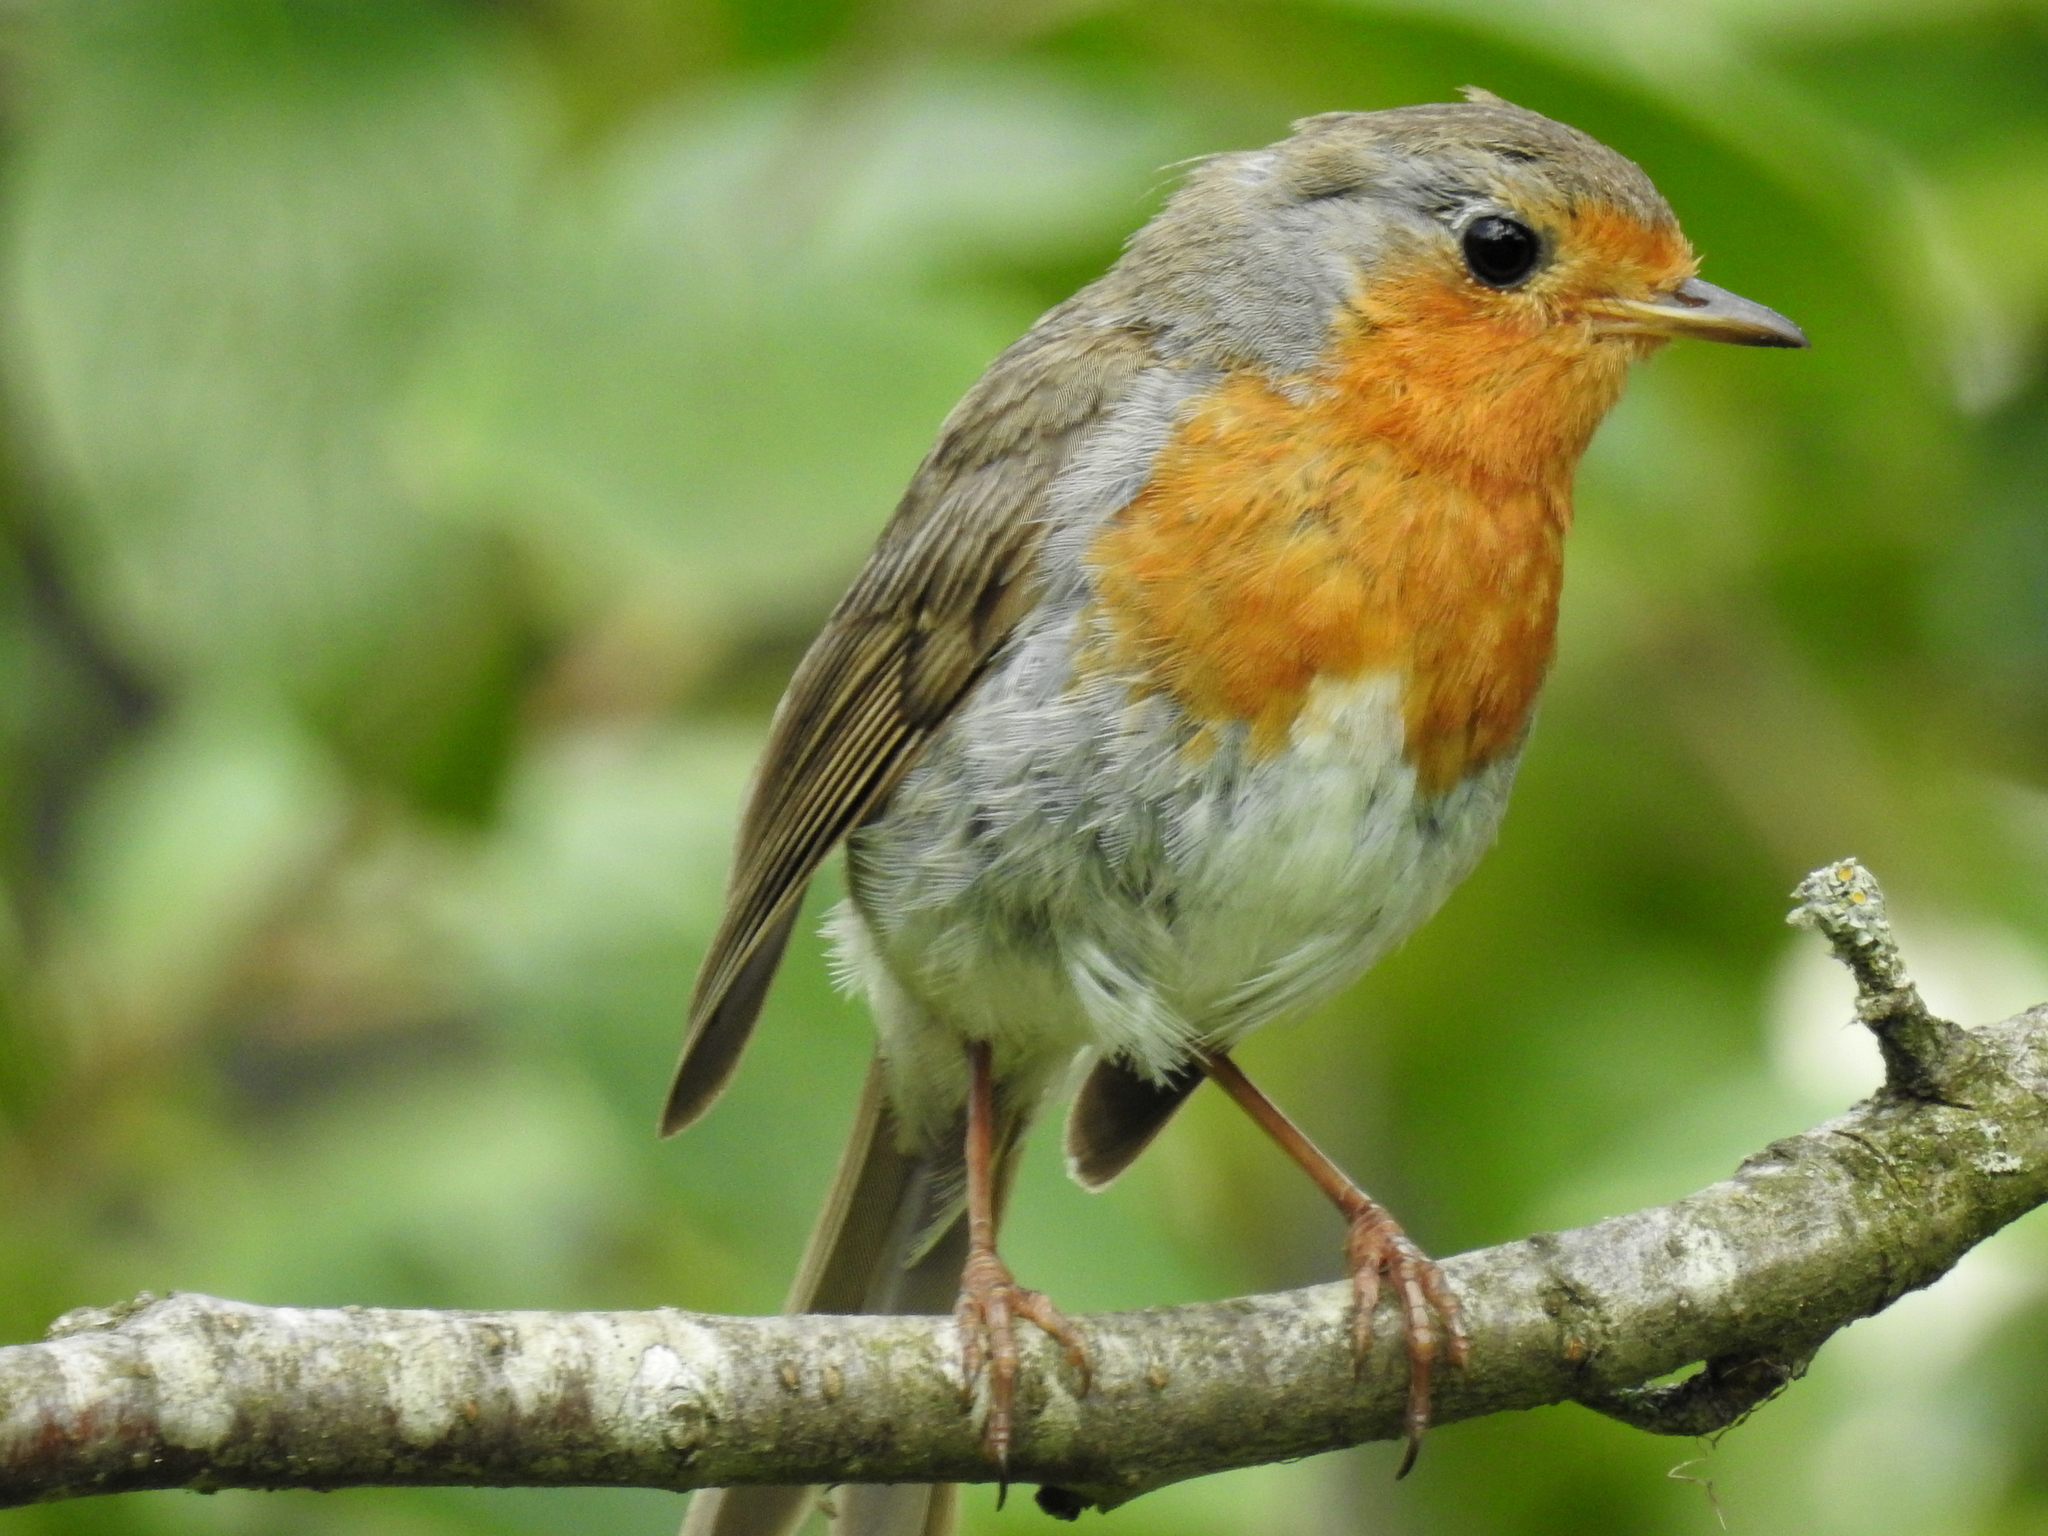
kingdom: Animalia
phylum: Chordata
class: Aves
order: Passeriformes
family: Muscicapidae
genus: Erithacus
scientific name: Erithacus rubecula
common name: European robin
